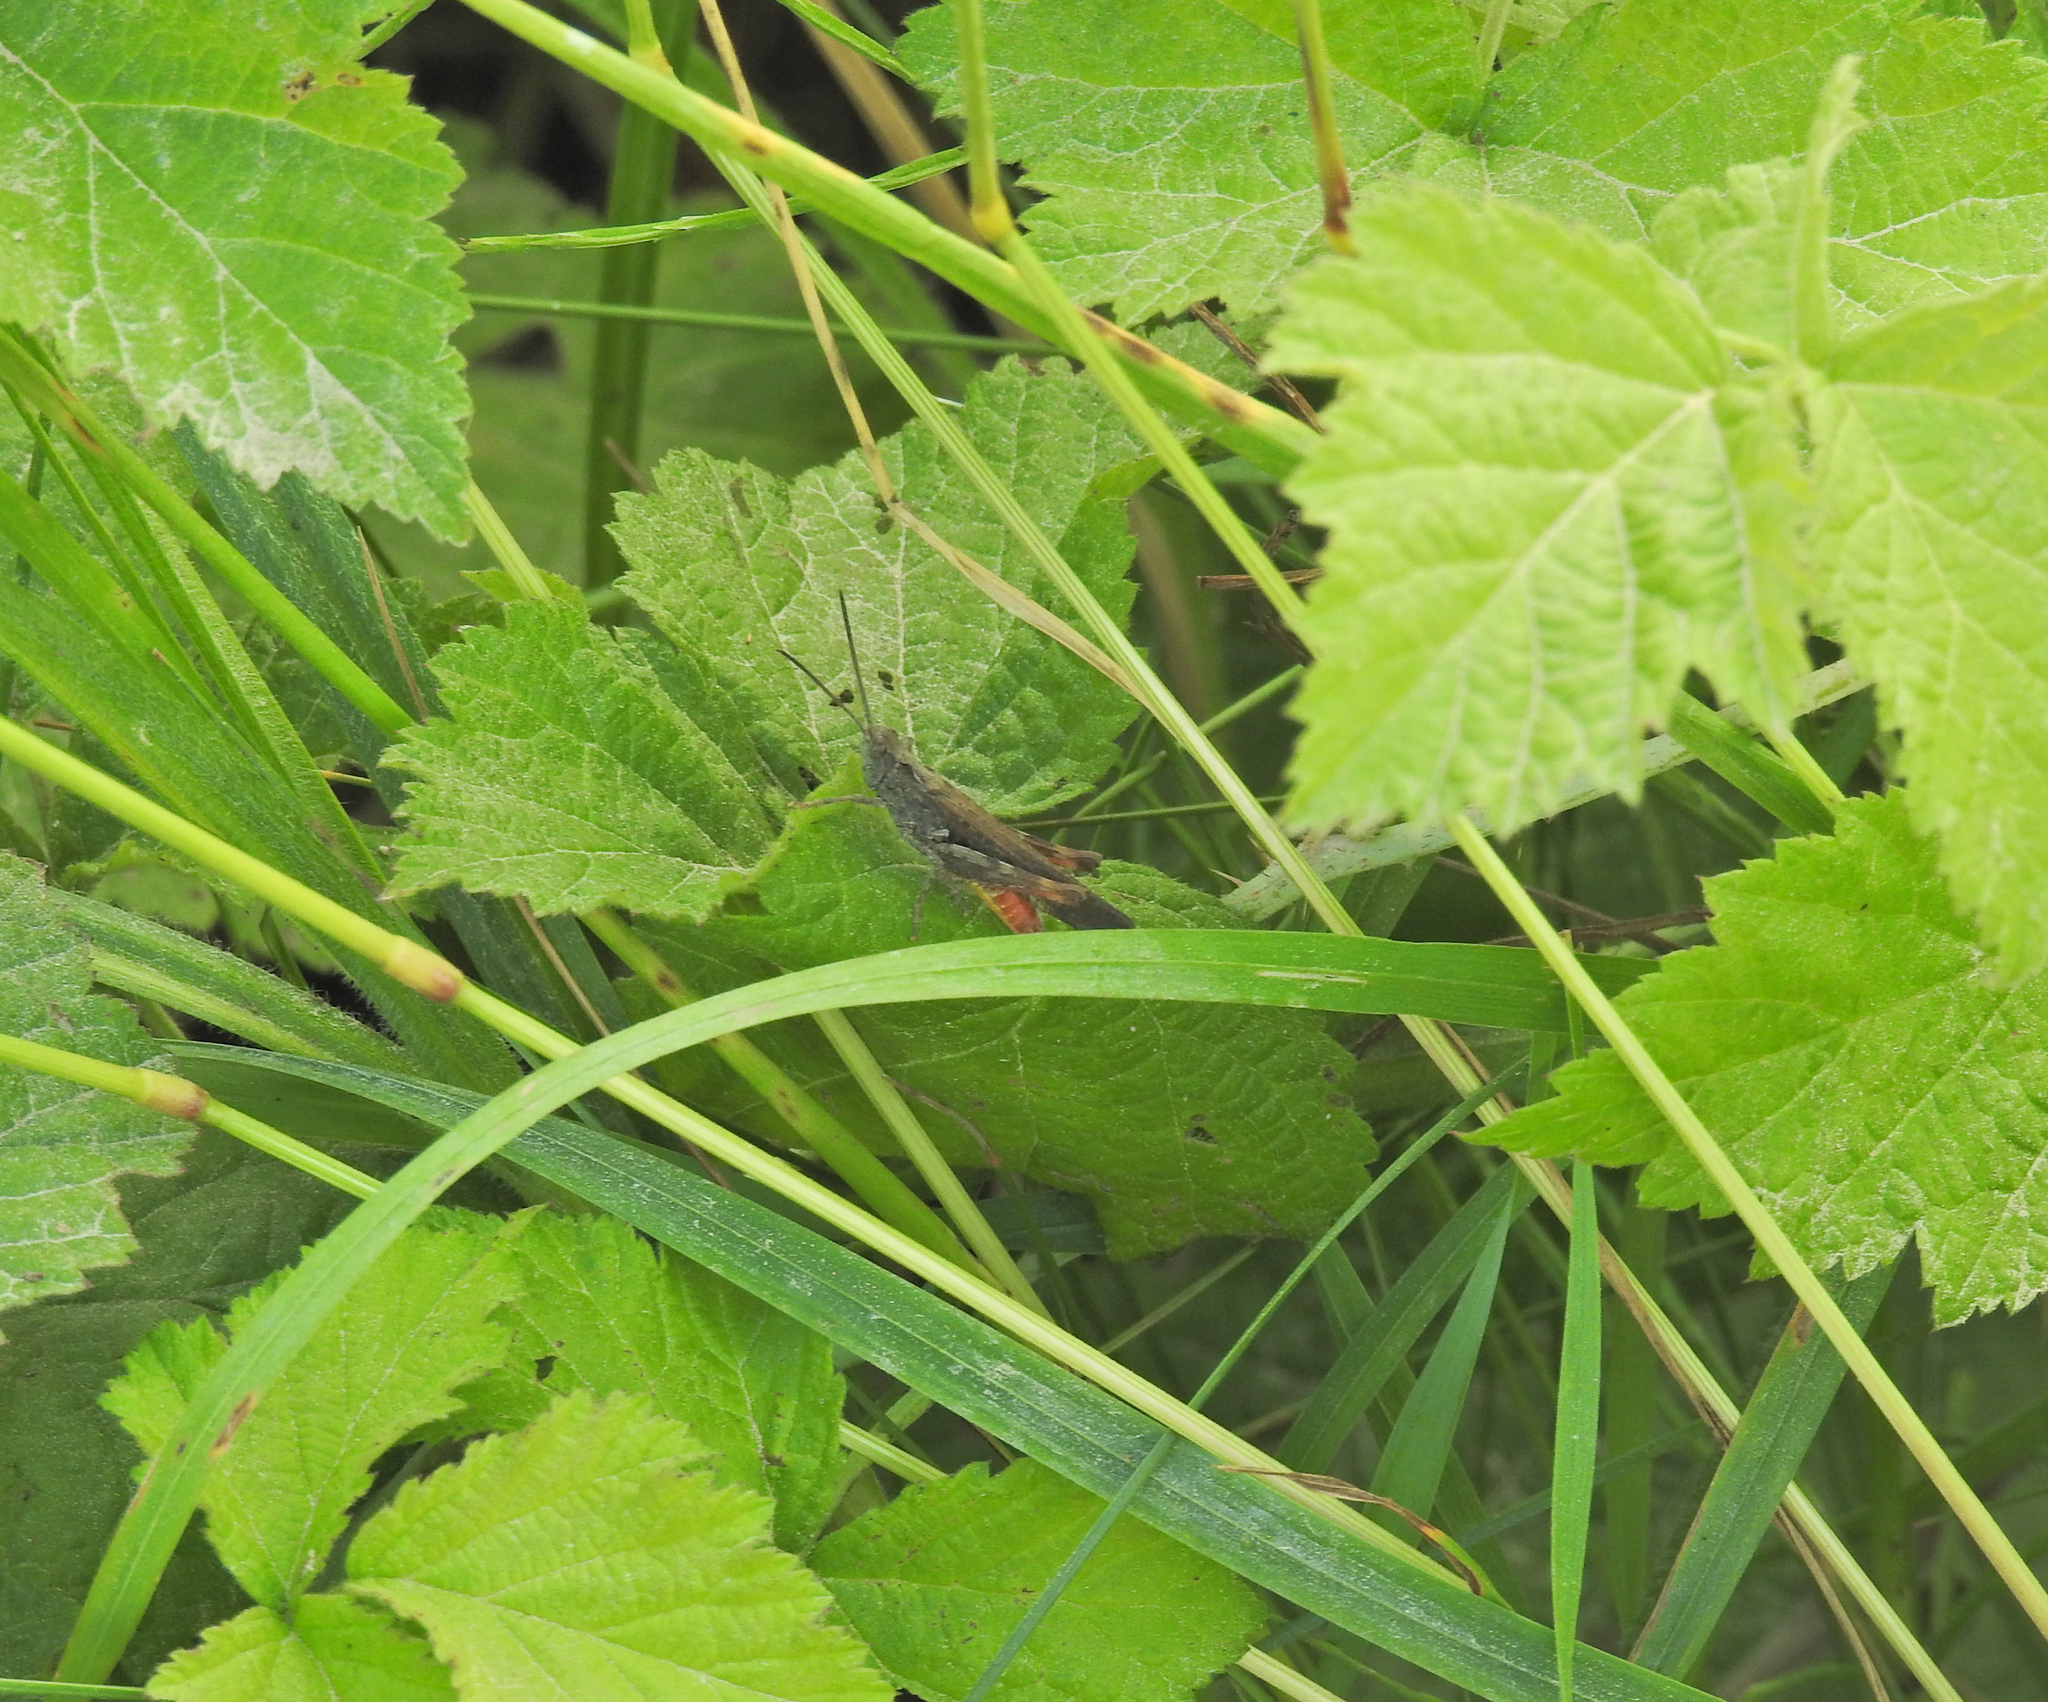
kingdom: Animalia
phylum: Arthropoda
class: Insecta
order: Orthoptera
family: Acrididae
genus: Chorthippus
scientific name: Chorthippus brunneus
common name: Field grasshopper
